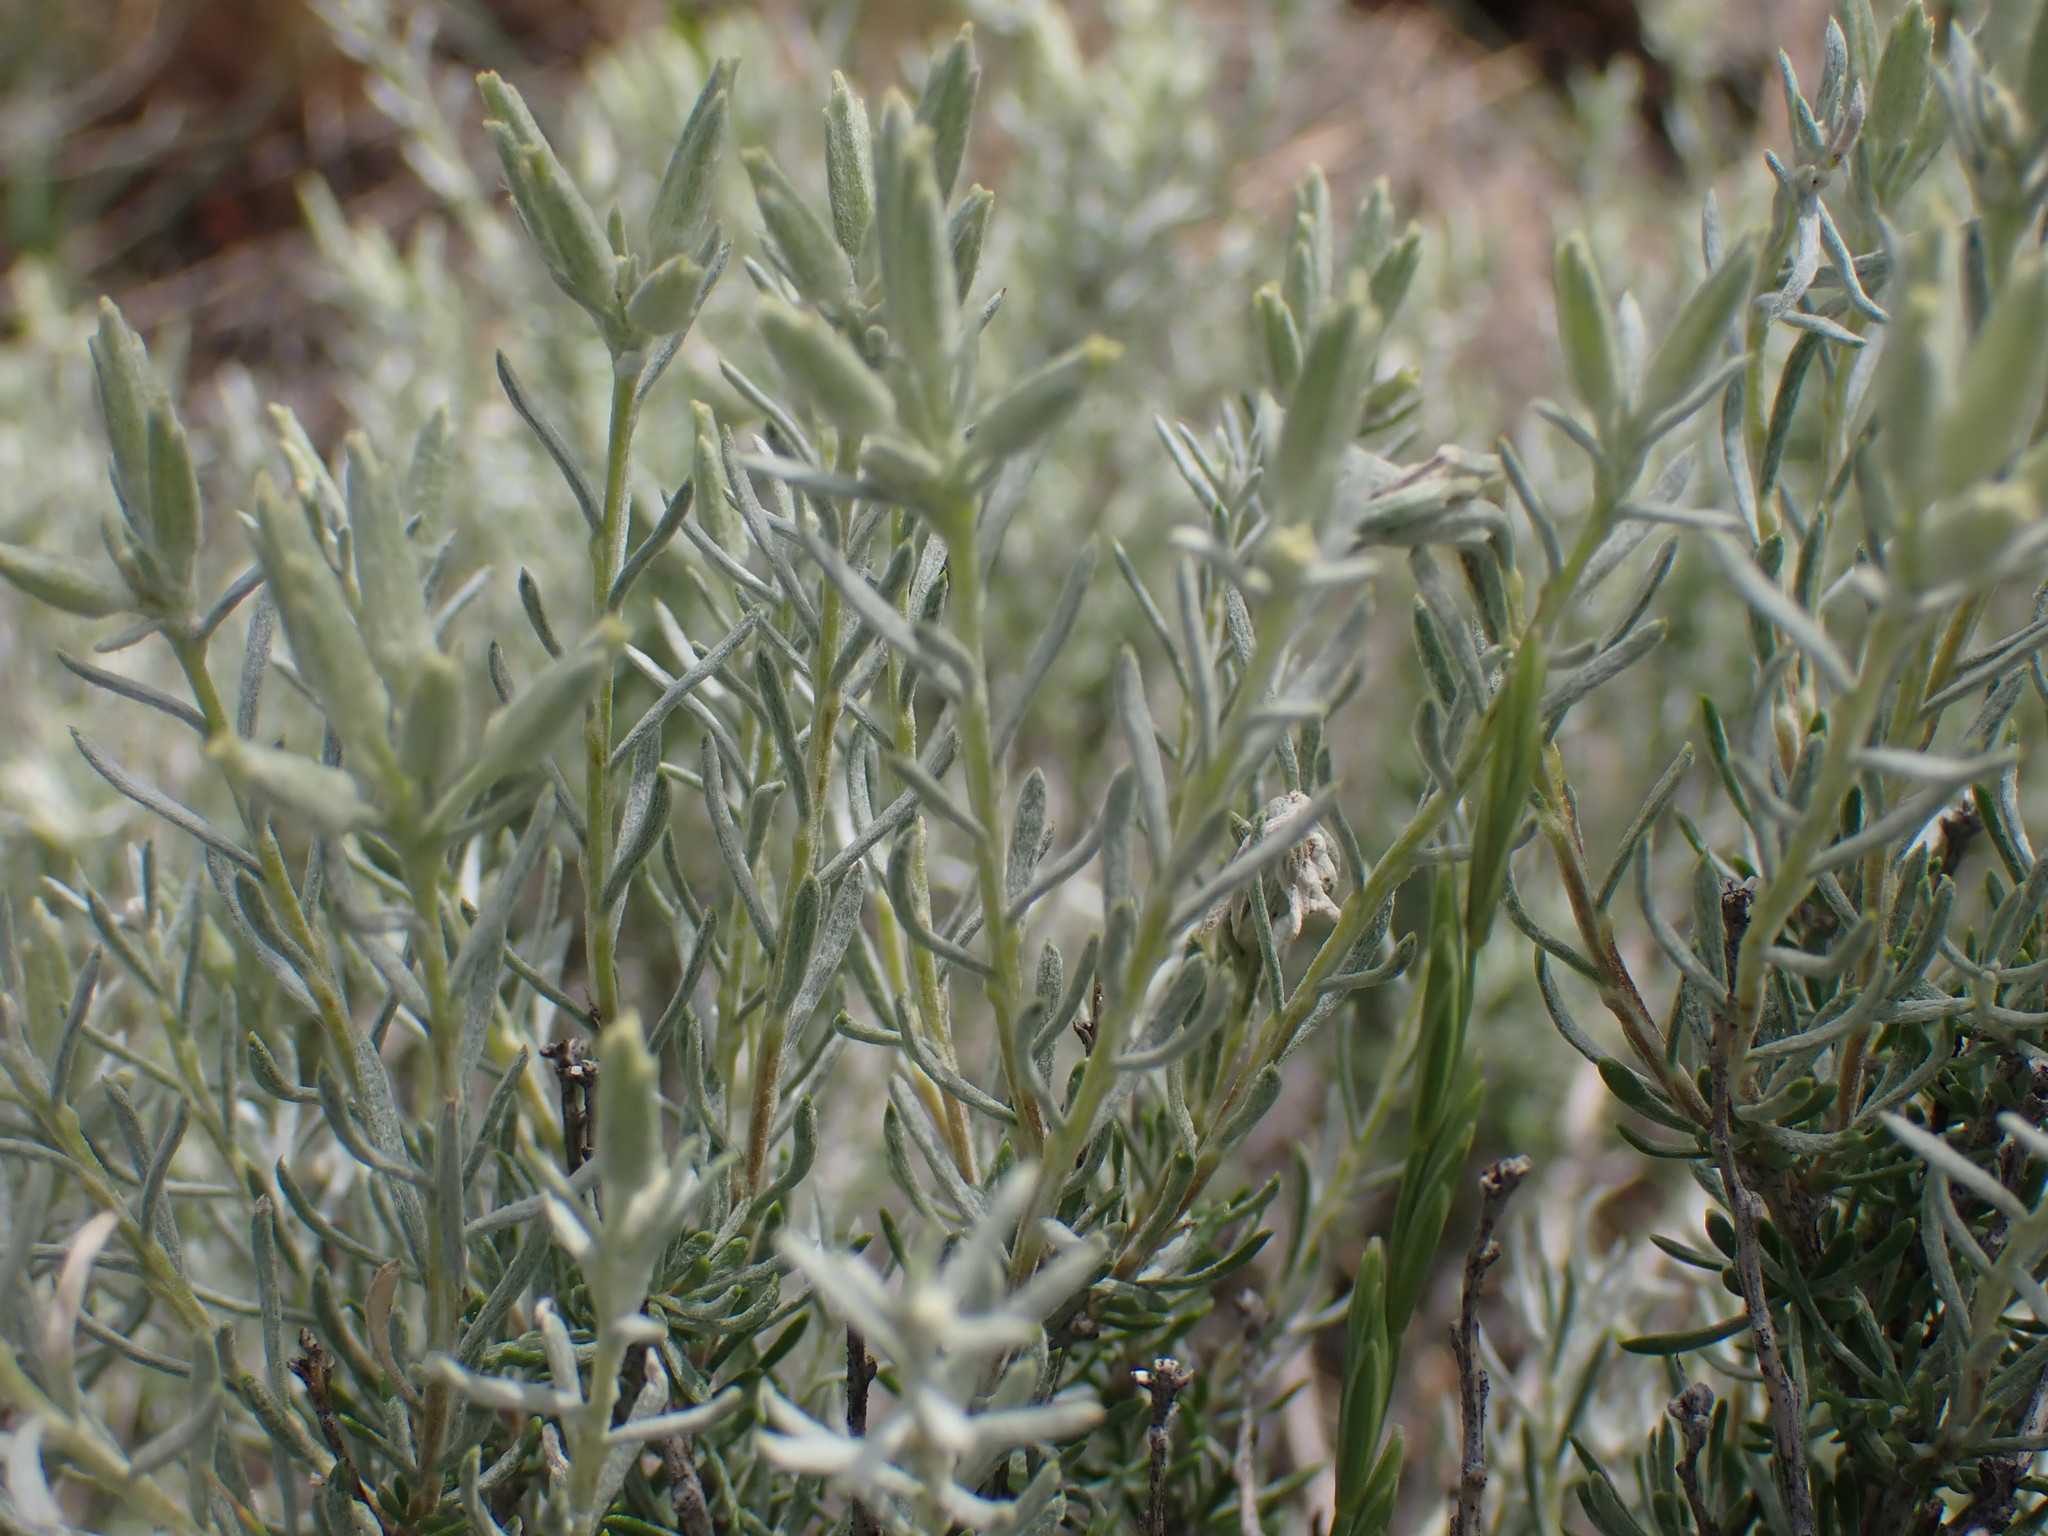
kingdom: Plantae
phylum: Tracheophyta
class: Magnoliopsida
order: Asterales
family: Asteraceae
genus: Tetradymia
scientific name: Tetradymia canescens
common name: Spineless horsebrush
